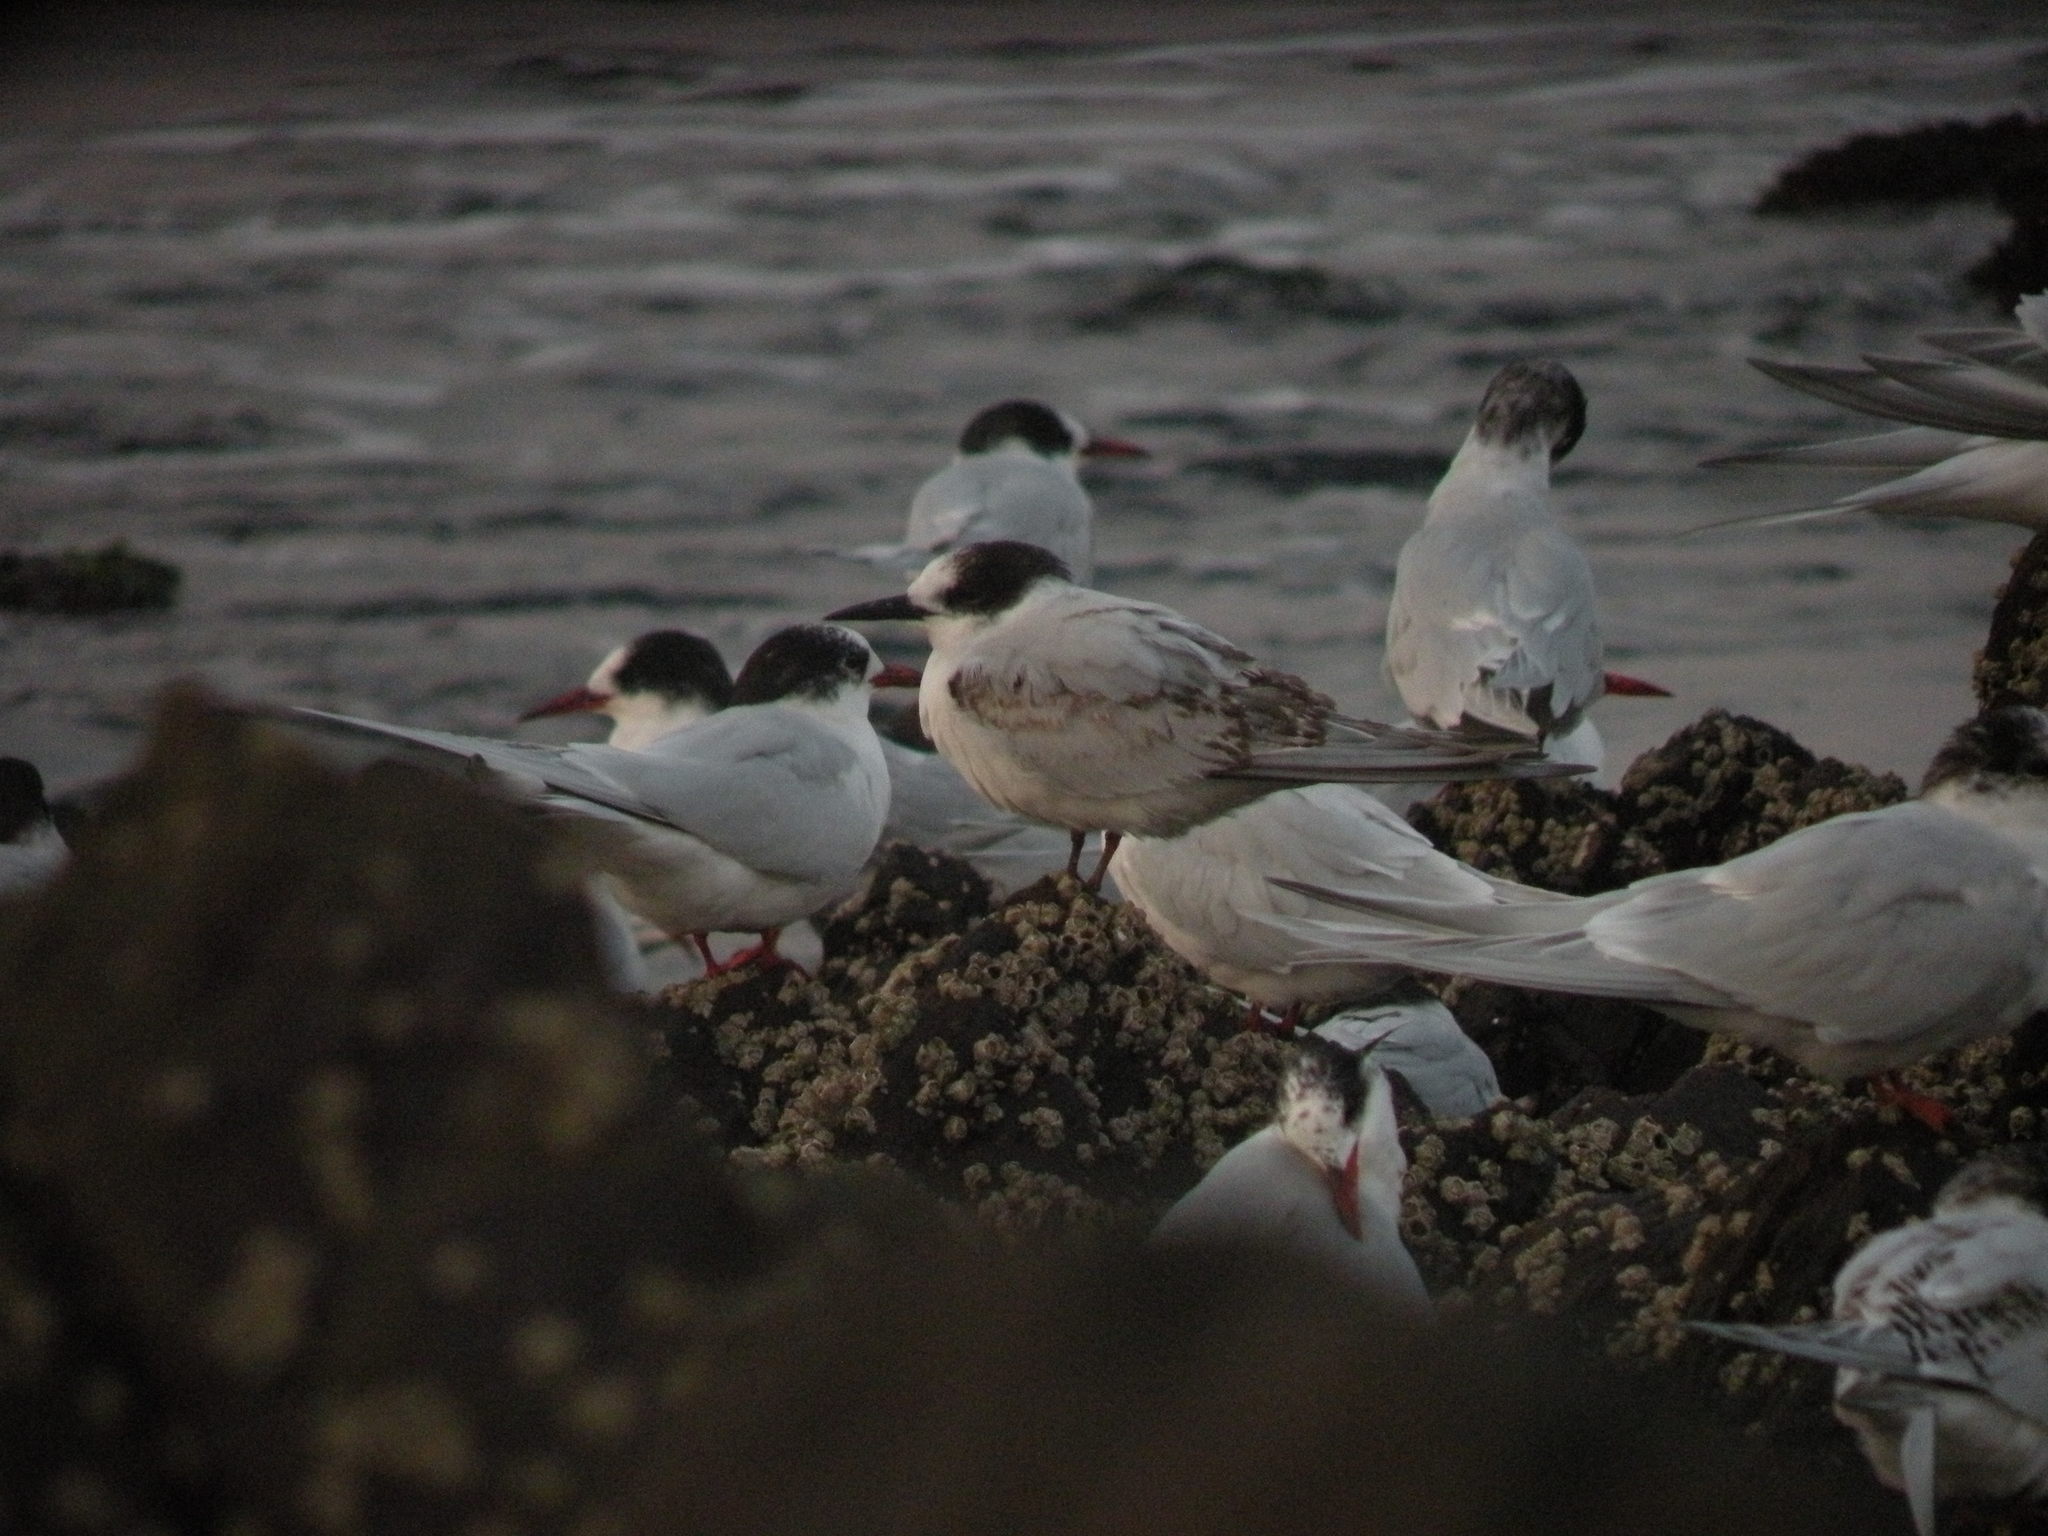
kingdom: Animalia
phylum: Chordata
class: Aves
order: Charadriiformes
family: Laridae
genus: Sterna
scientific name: Sterna hirundinacea
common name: South american tern
